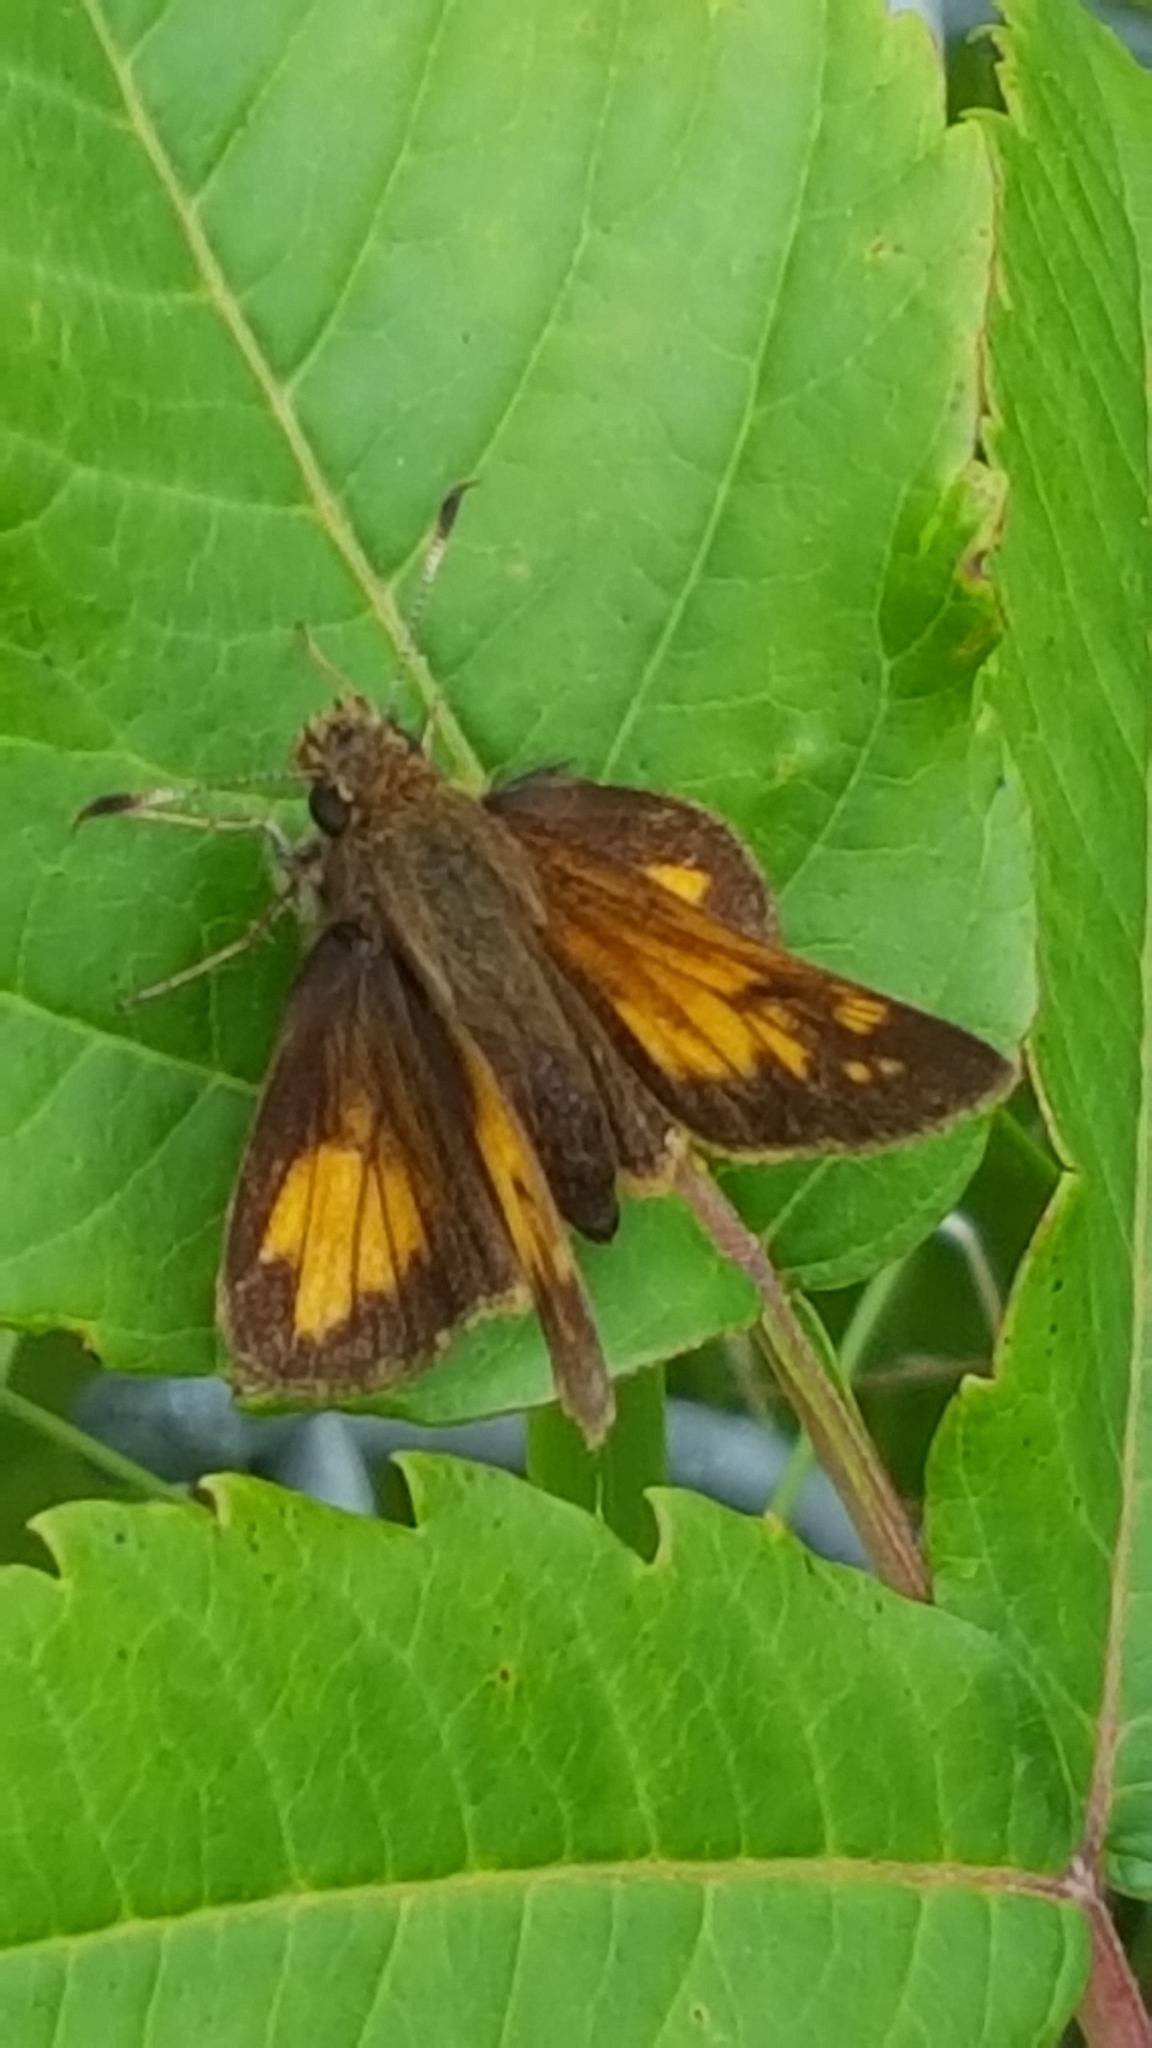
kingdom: Animalia
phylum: Arthropoda
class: Insecta
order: Lepidoptera
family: Hesperiidae
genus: Lon
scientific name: Lon hobomok
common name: Hobomok skipper
